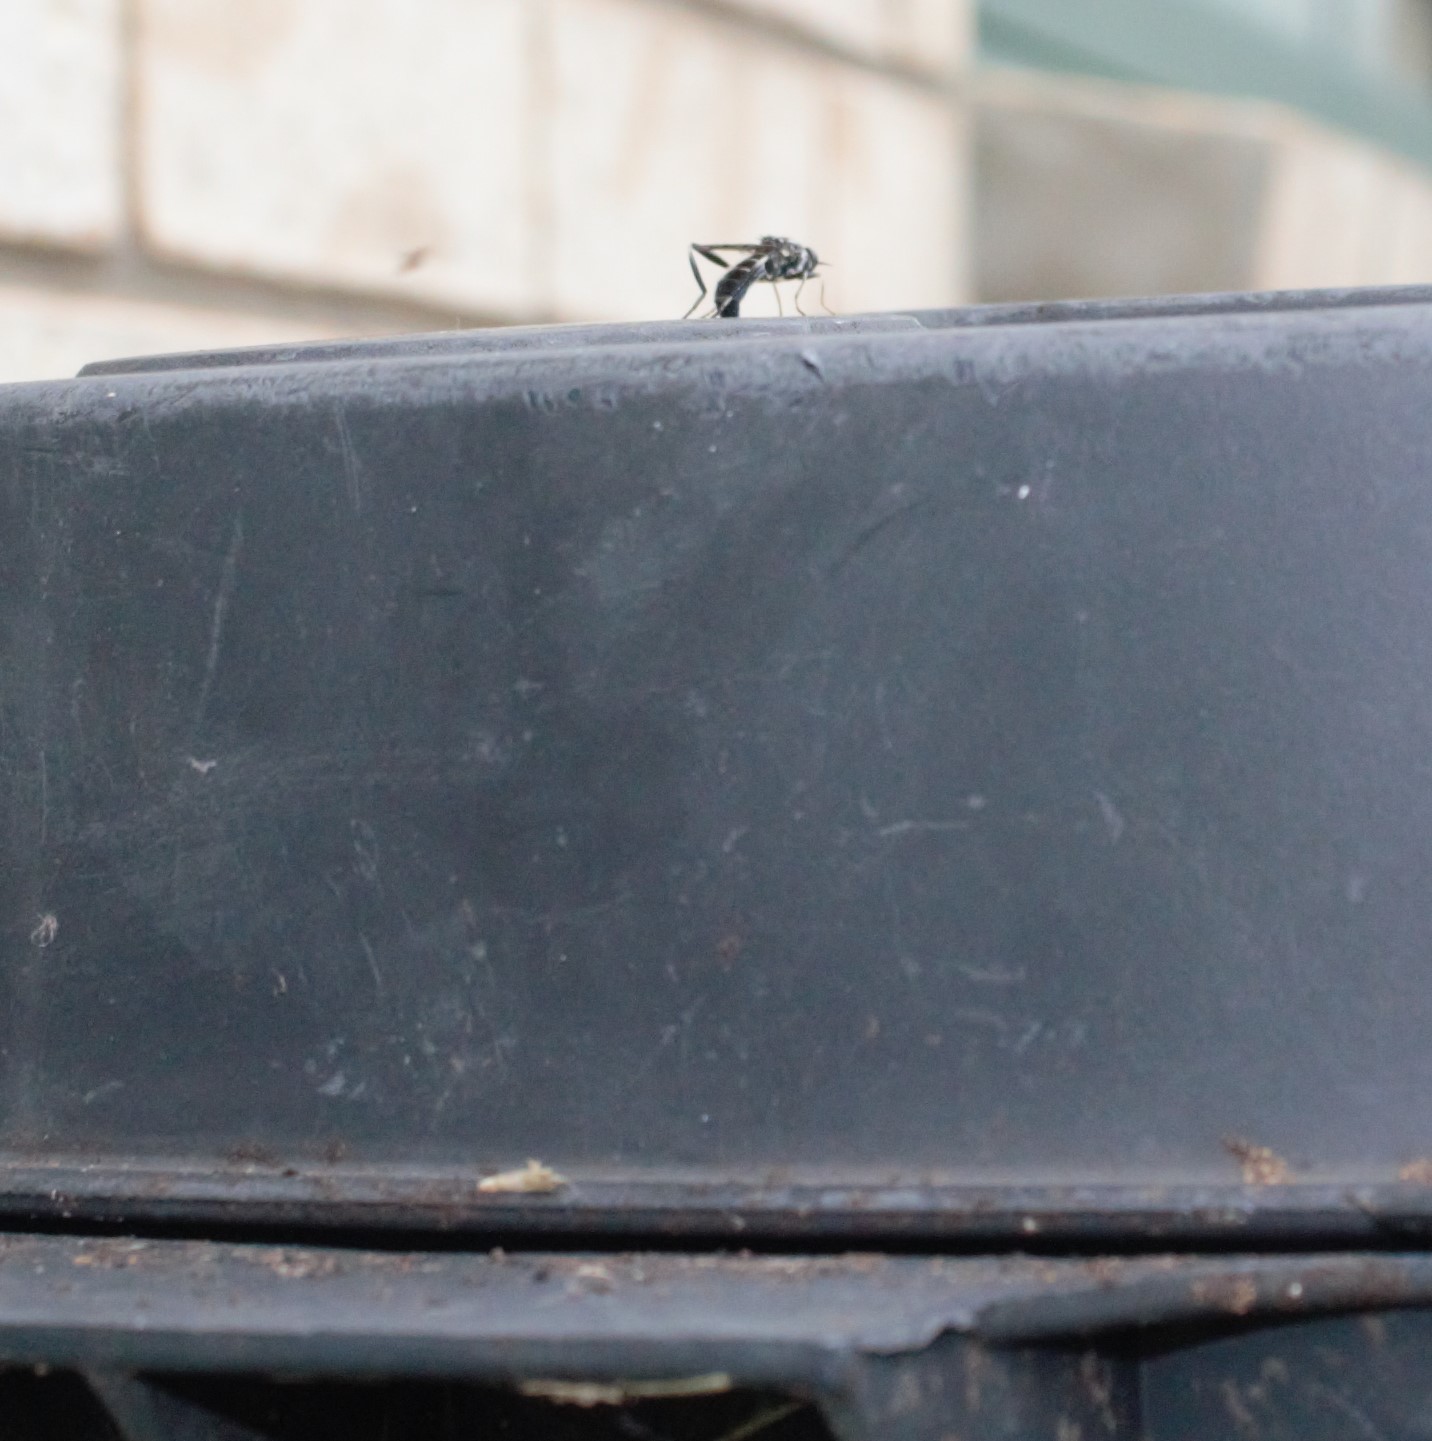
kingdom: Animalia
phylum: Arthropoda
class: Insecta
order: Diptera
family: Stratiomyidae
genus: Exaireta
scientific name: Exaireta spinigera
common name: Blue soldier fly
